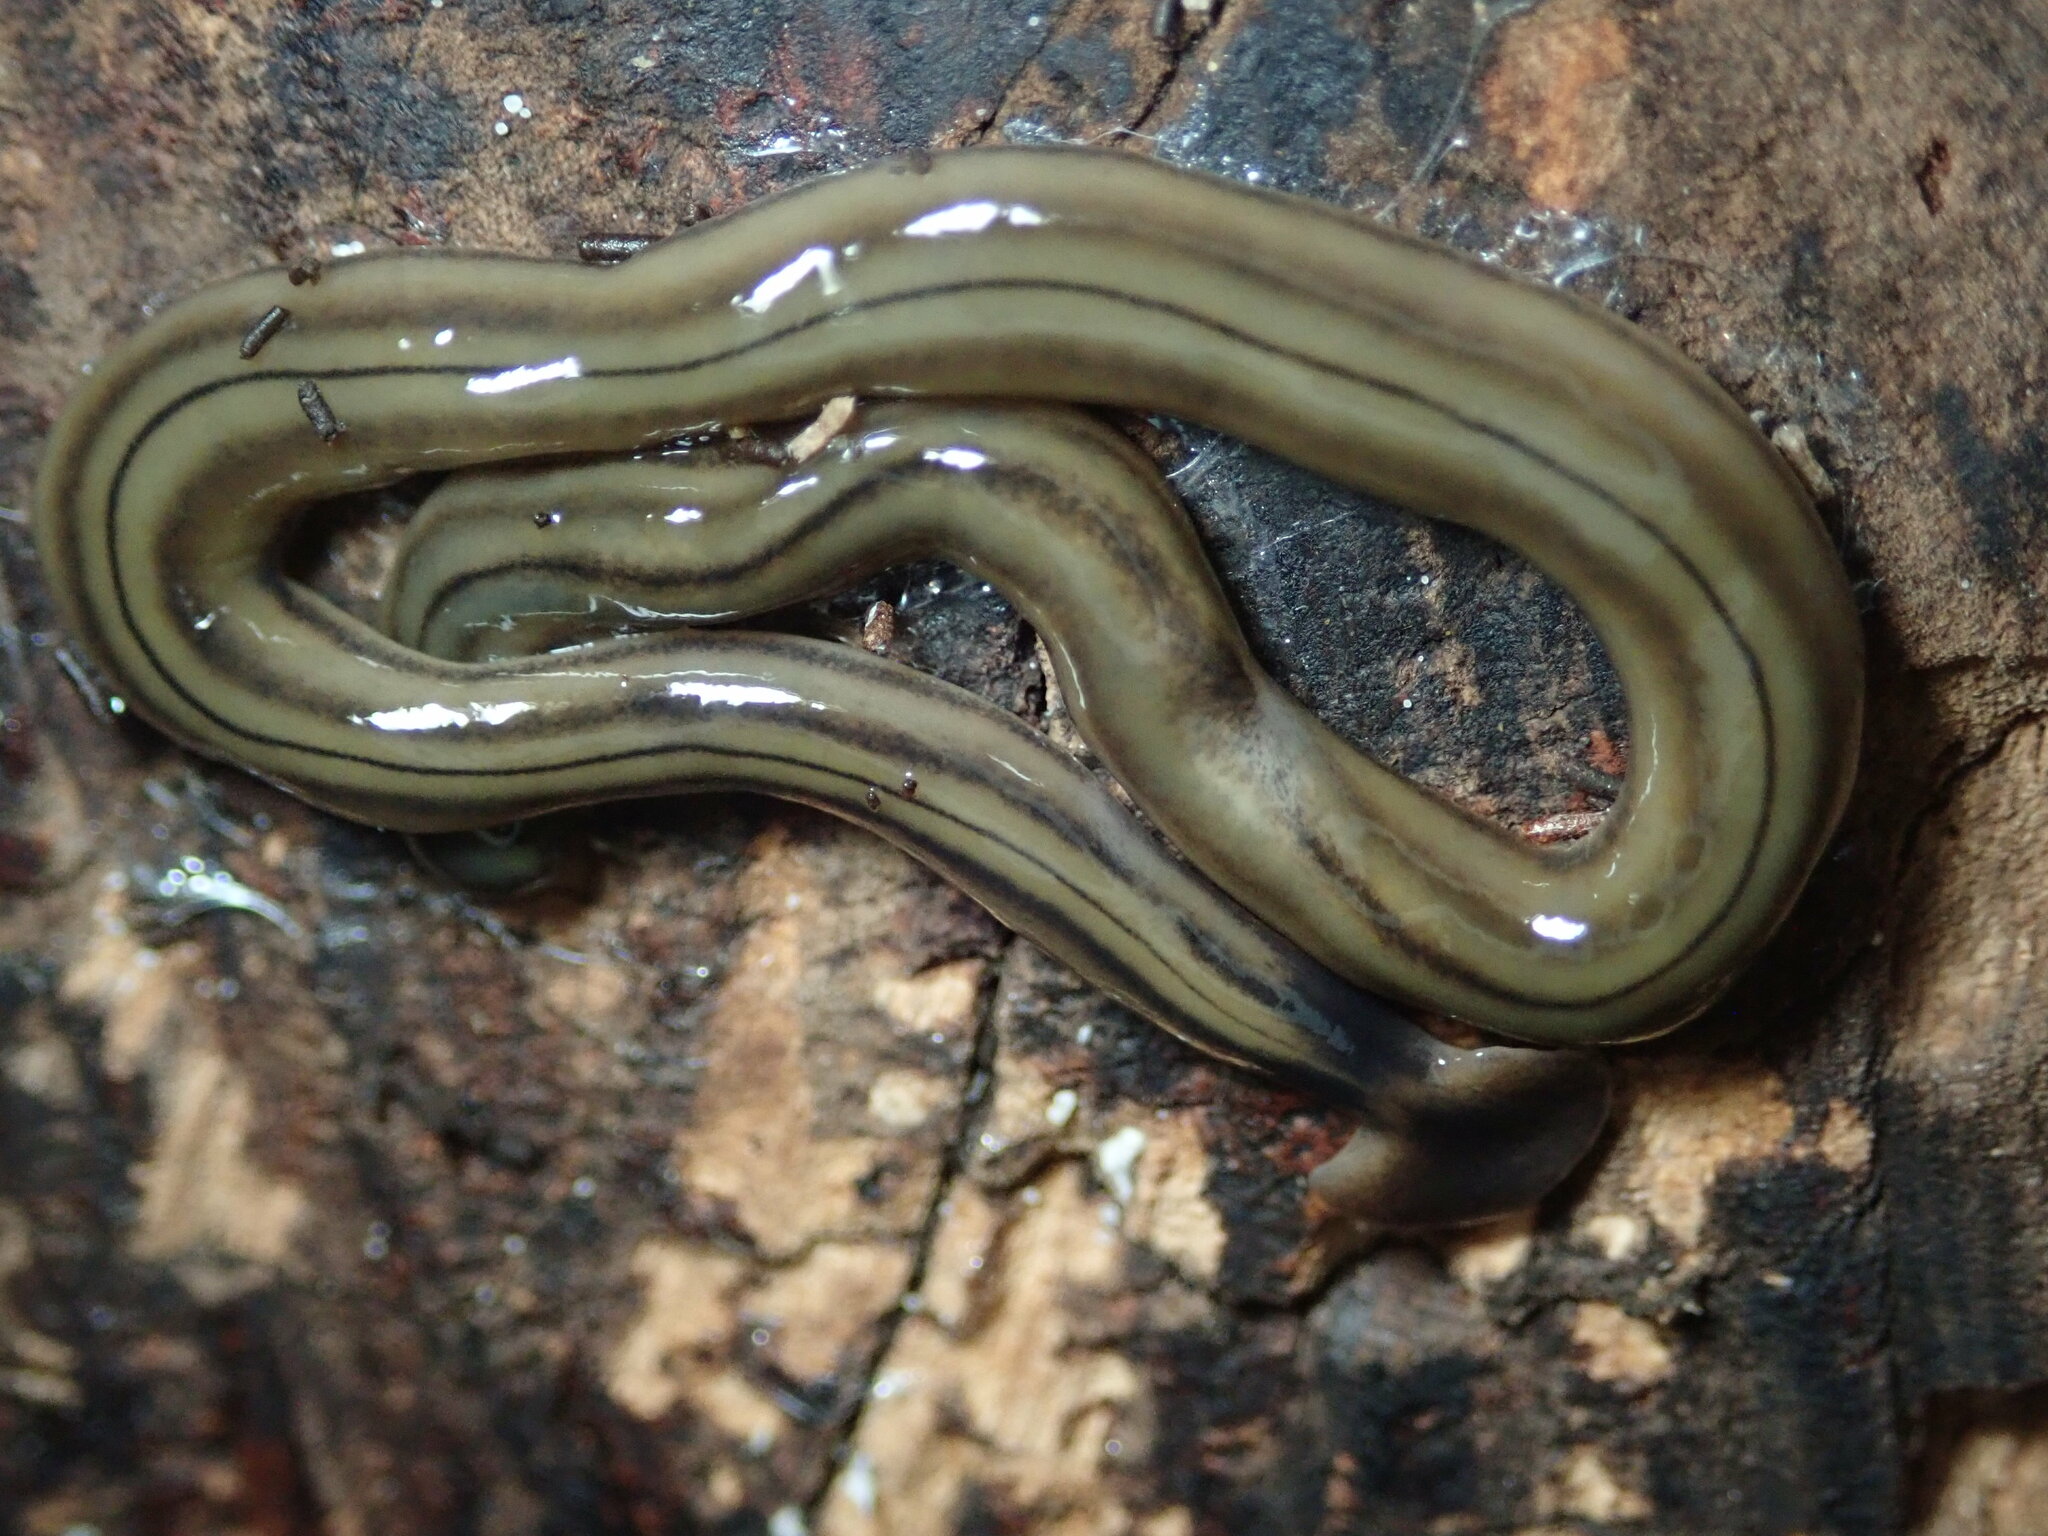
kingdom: Animalia
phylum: Platyhelminthes
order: Tricladida
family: Geoplanidae
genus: Bipalium
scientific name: Bipalium kewense
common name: Hammerhead flatworm
